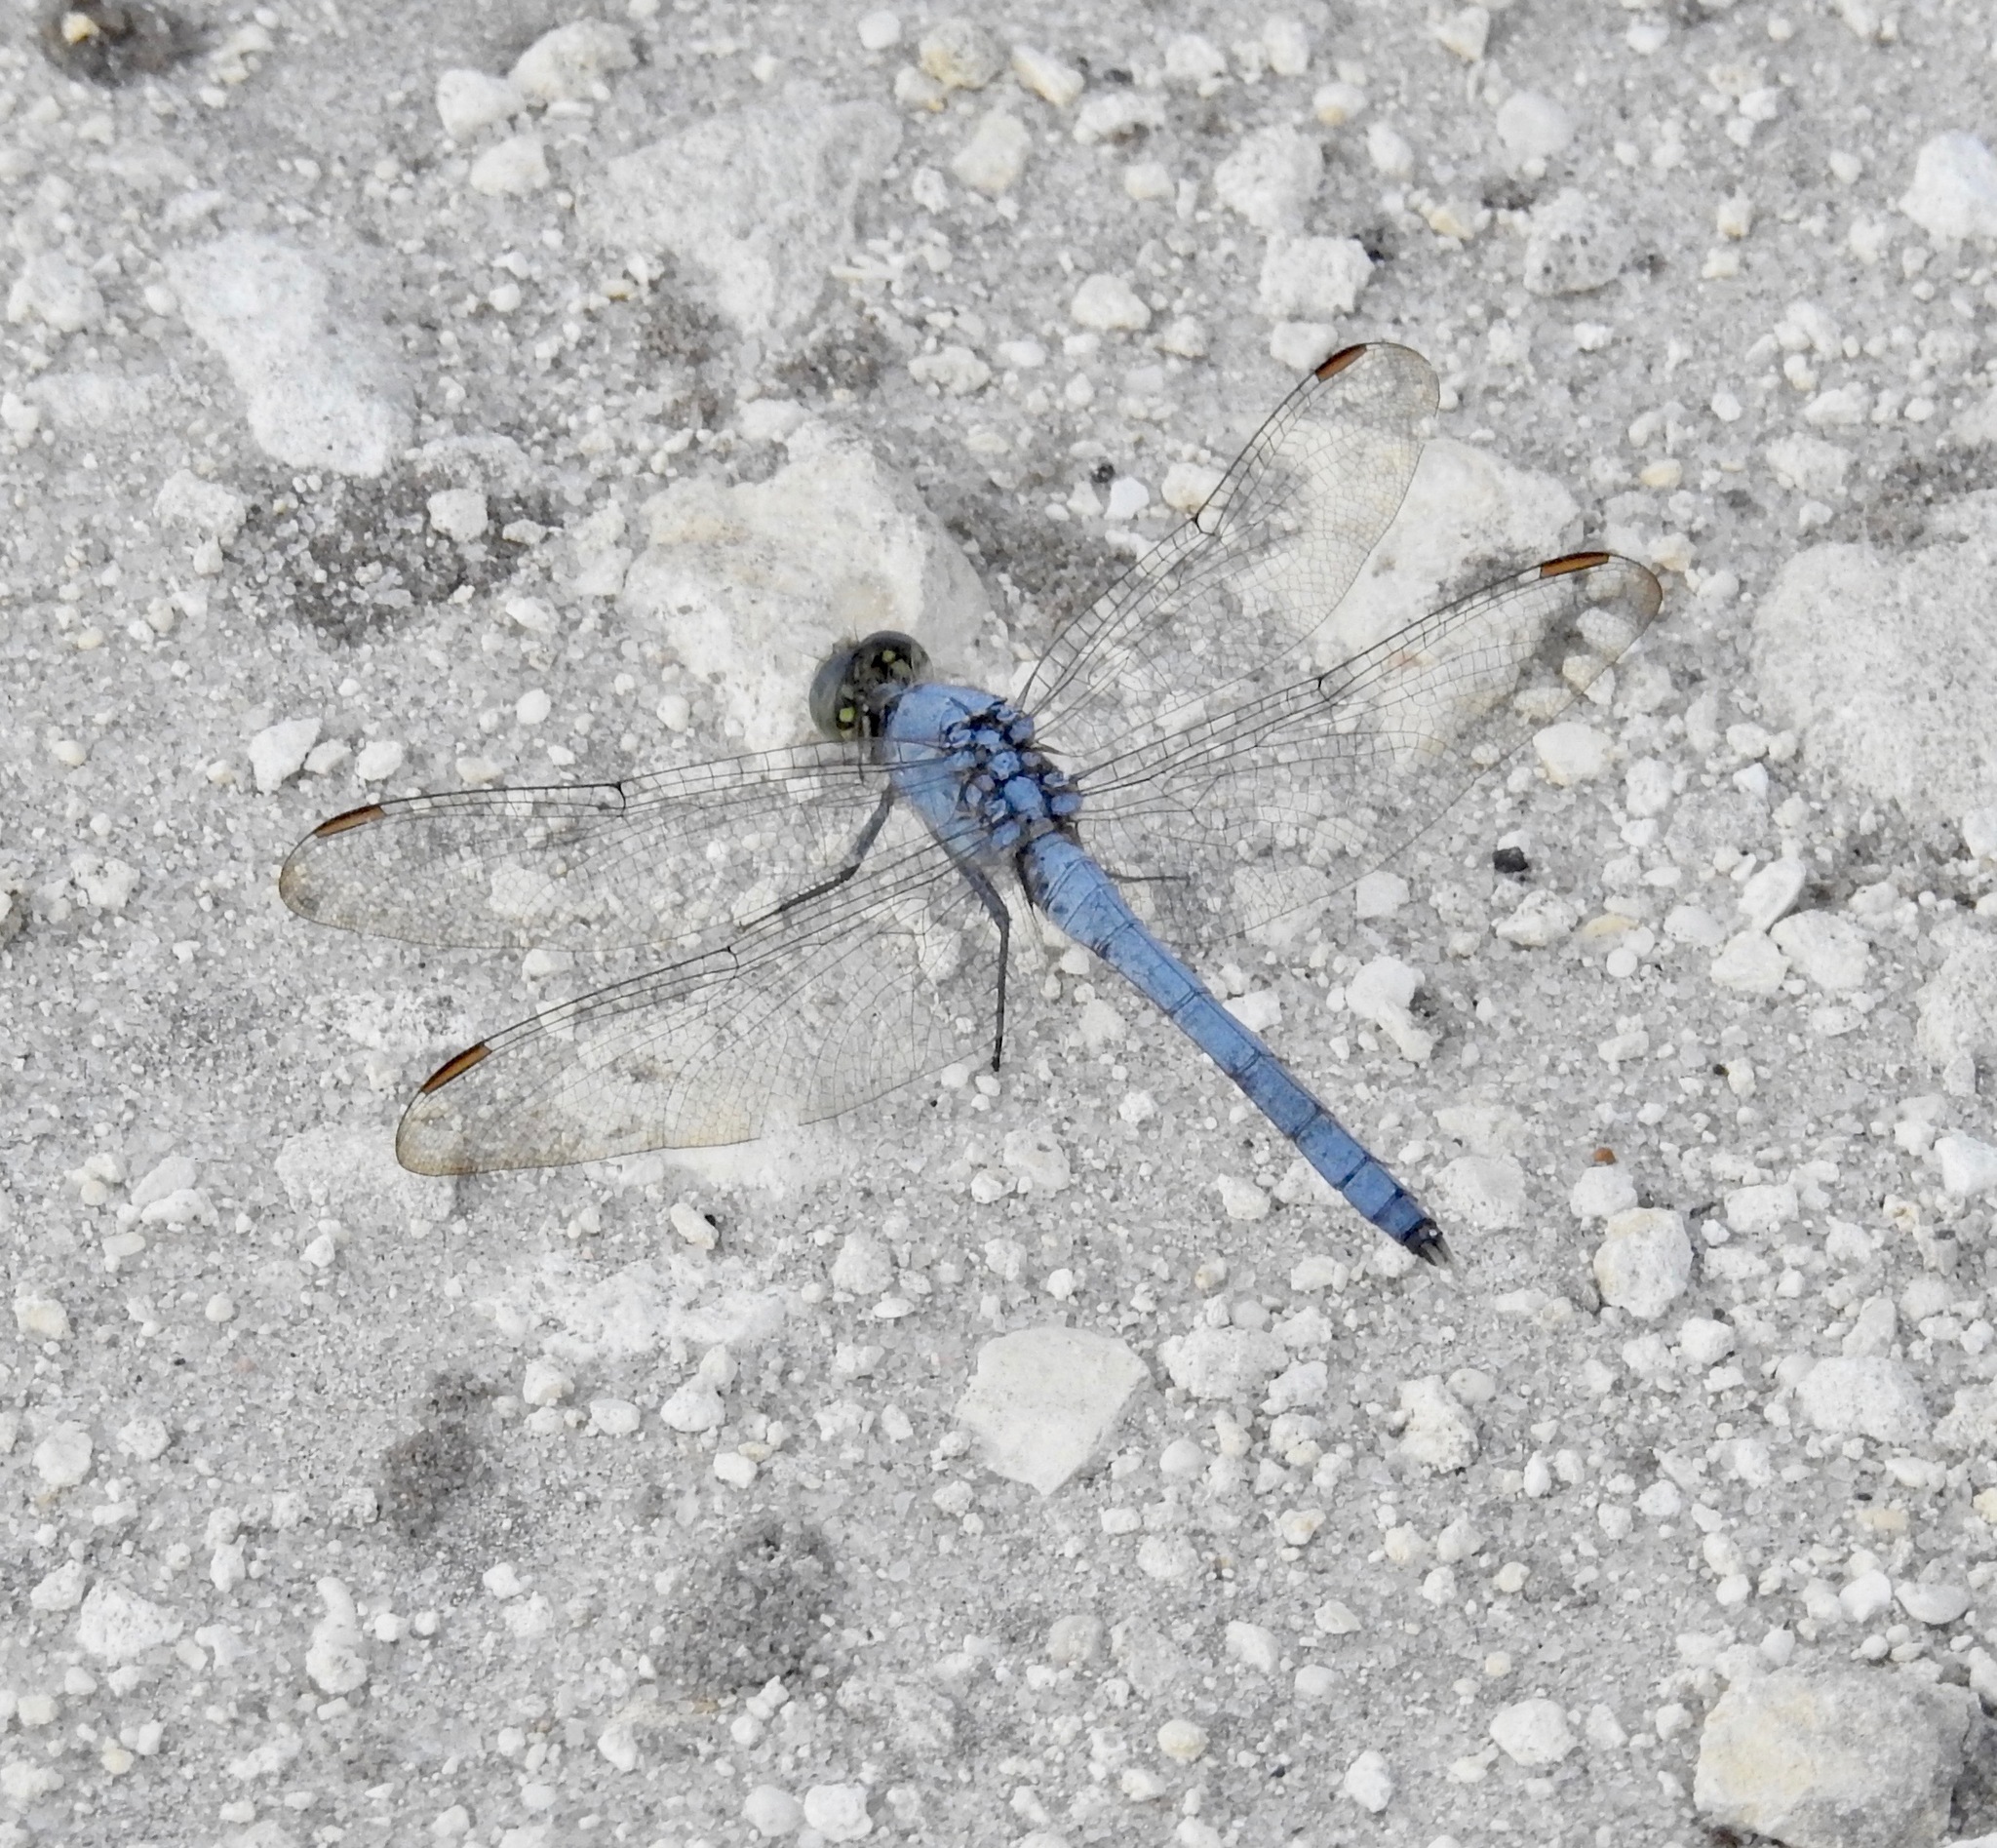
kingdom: Animalia
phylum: Arthropoda
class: Insecta
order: Odonata
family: Libellulidae
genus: Erythemis
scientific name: Erythemis simplicicollis
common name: Eastern pondhawk
